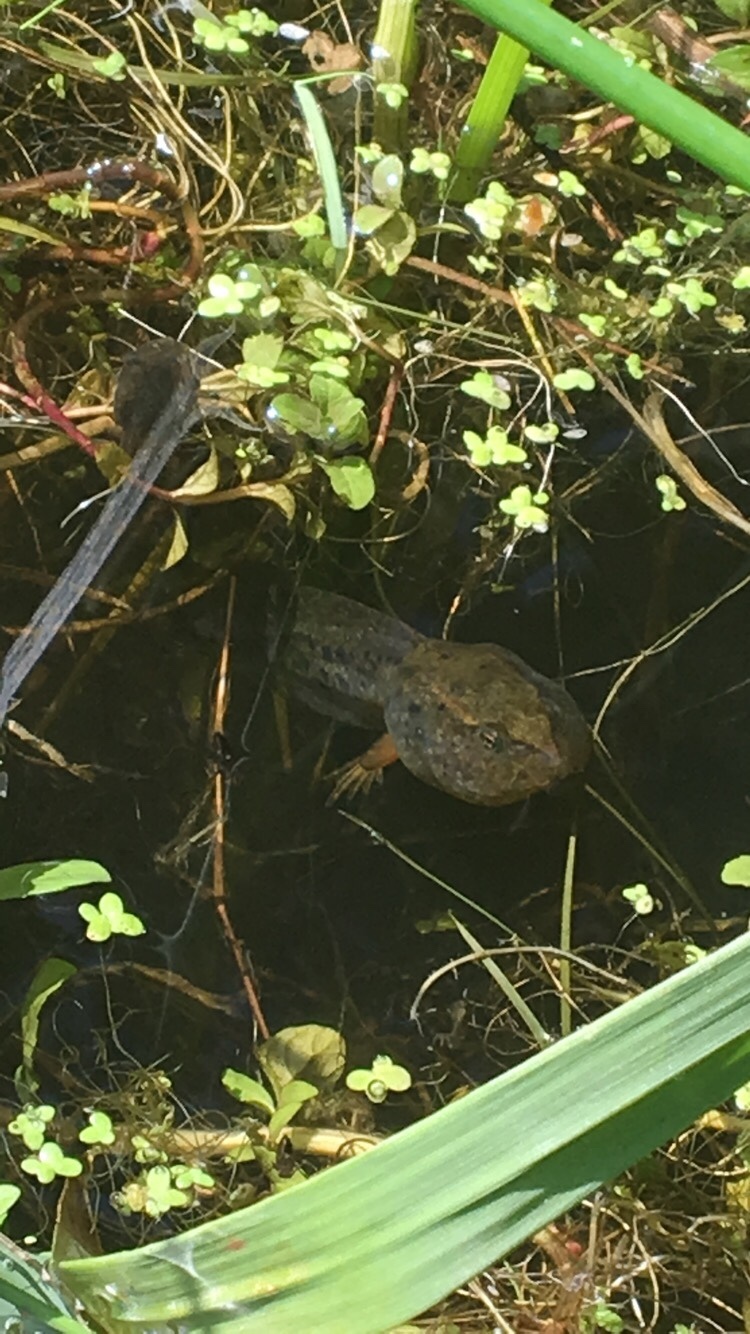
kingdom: Animalia
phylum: Chordata
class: Amphibia
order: Anura
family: Ranidae
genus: Rana
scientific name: Rana aurora
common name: Red-legged frog
